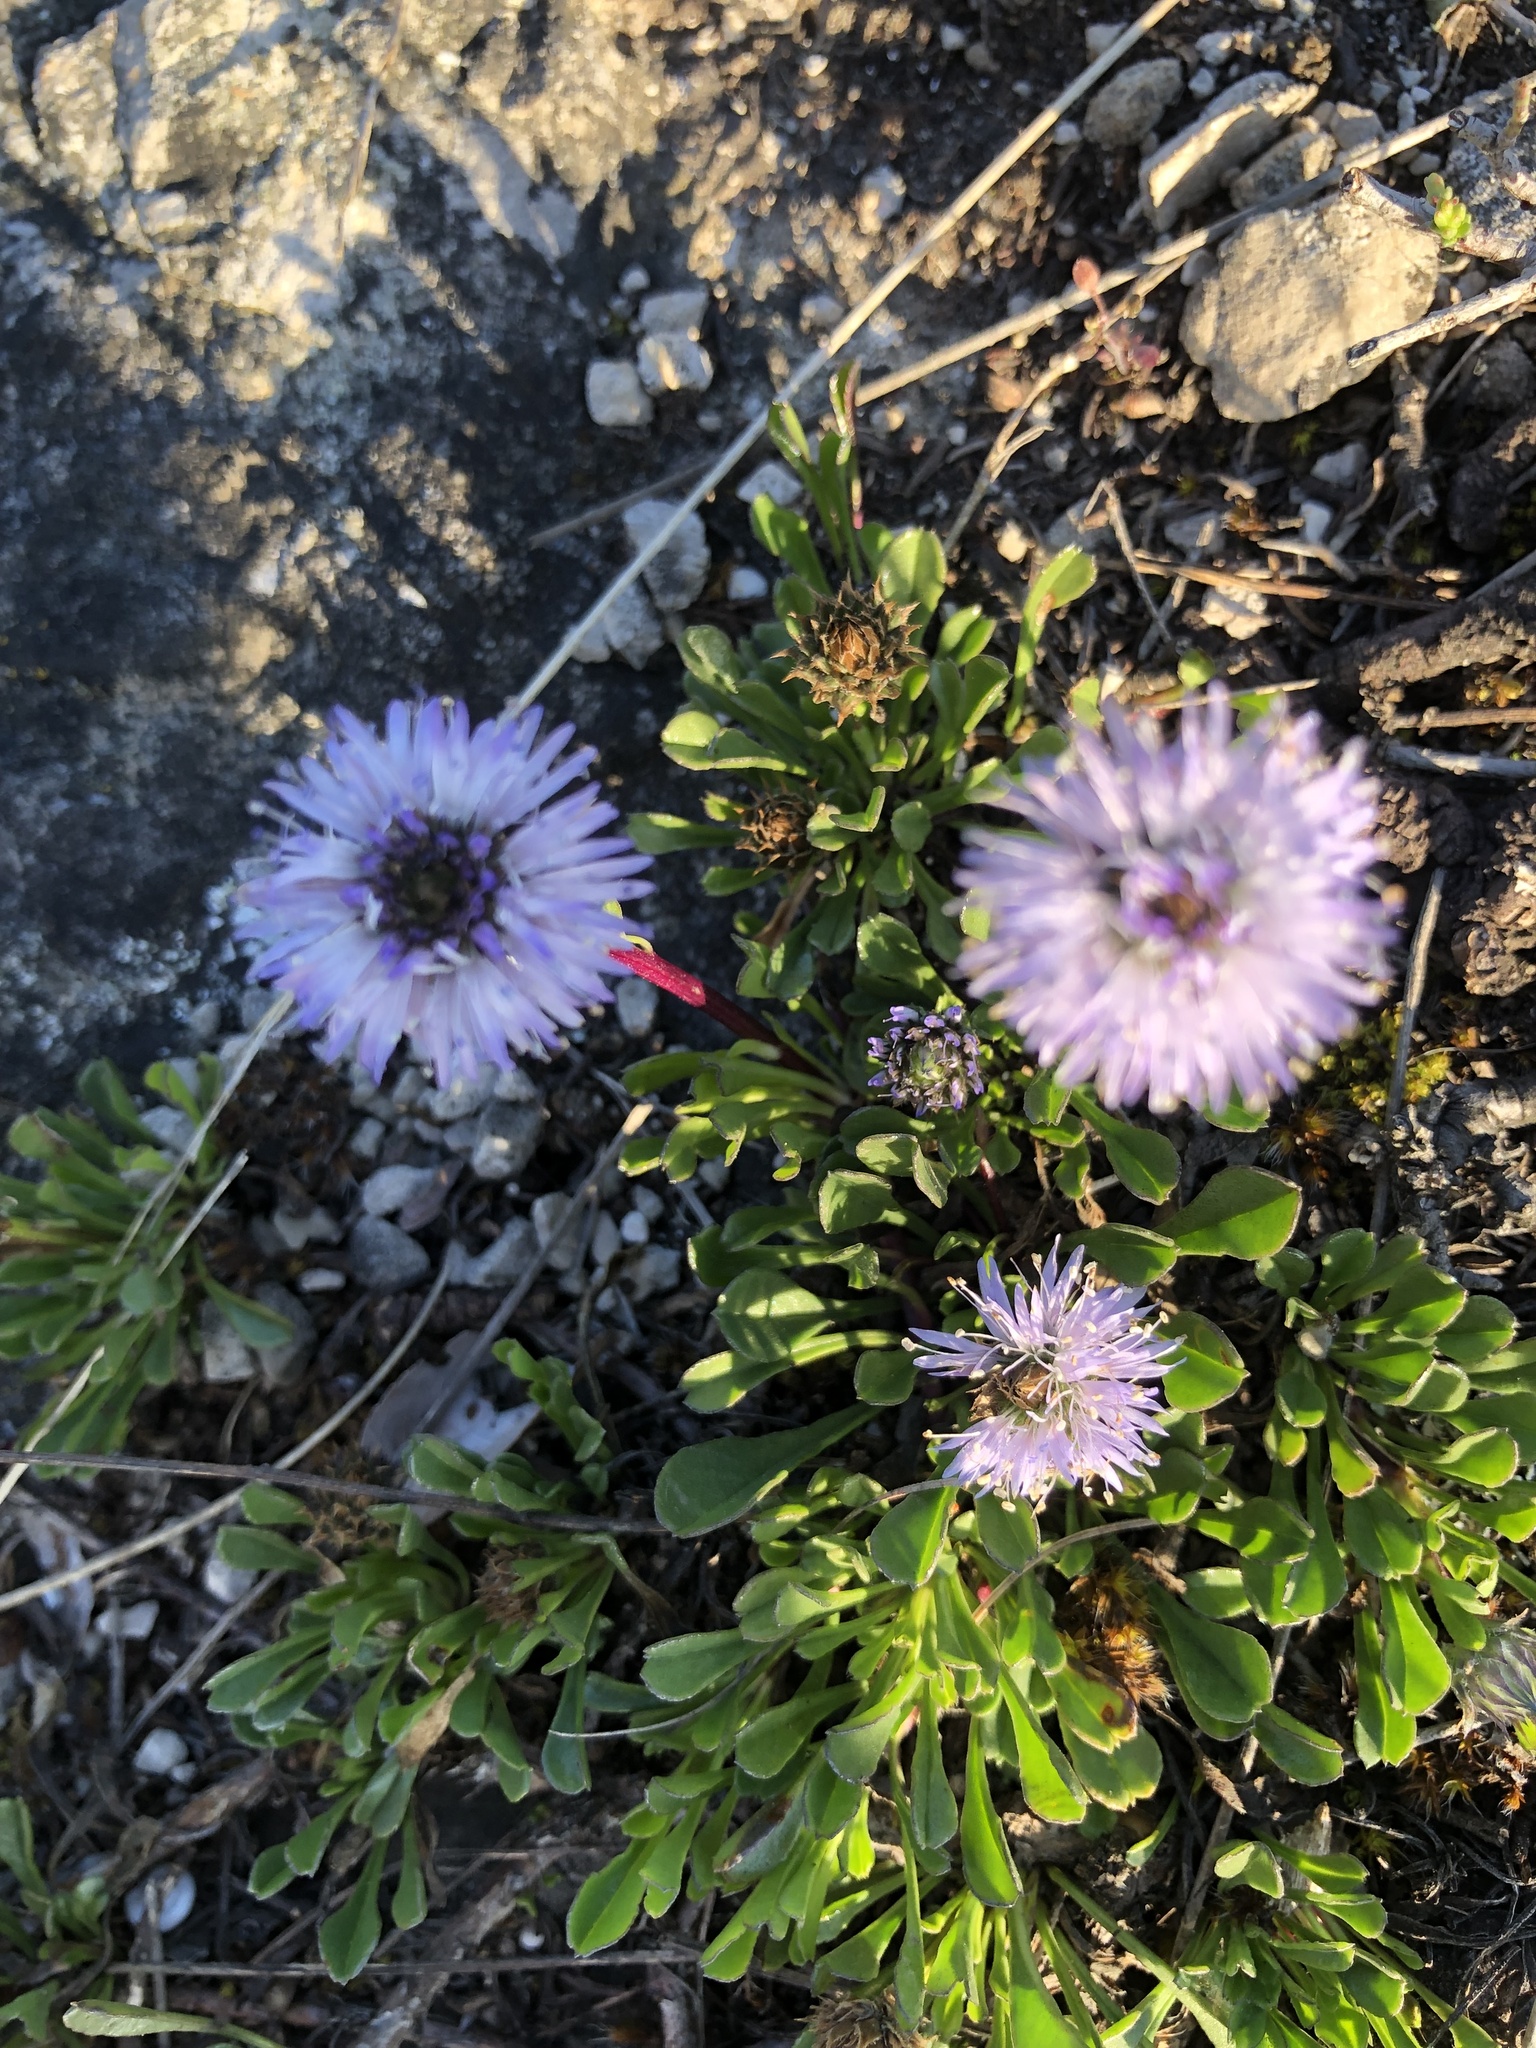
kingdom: Plantae
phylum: Tracheophyta
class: Magnoliopsida
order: Lamiales
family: Plantaginaceae
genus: Globularia
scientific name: Globularia cordifolia
